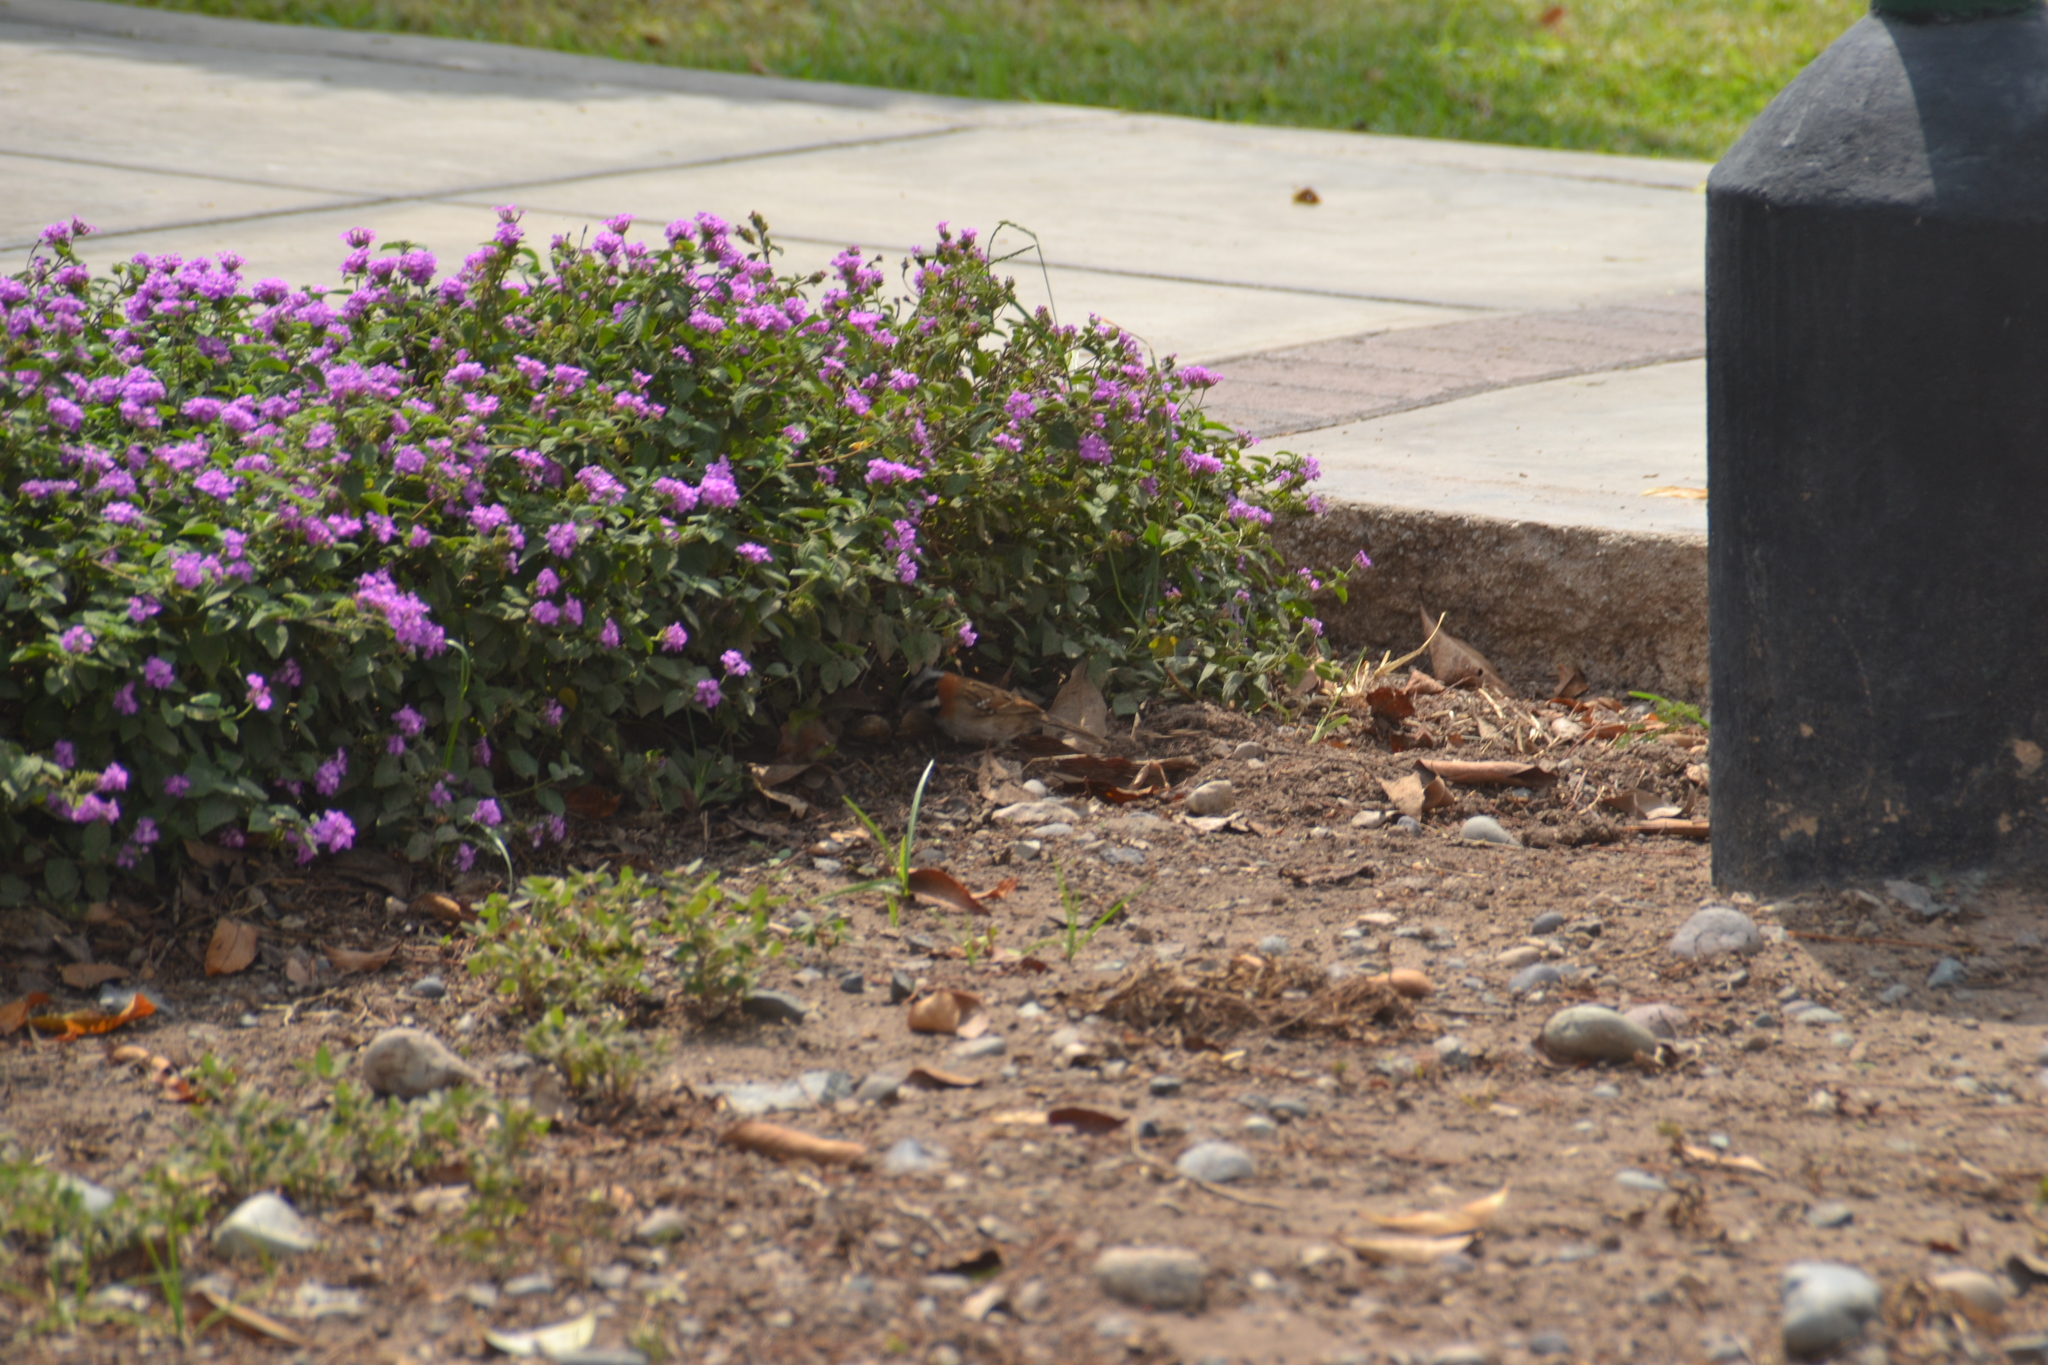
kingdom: Animalia
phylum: Chordata
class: Aves
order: Passeriformes
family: Passerellidae
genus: Zonotrichia
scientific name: Zonotrichia capensis
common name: Rufous-collared sparrow
